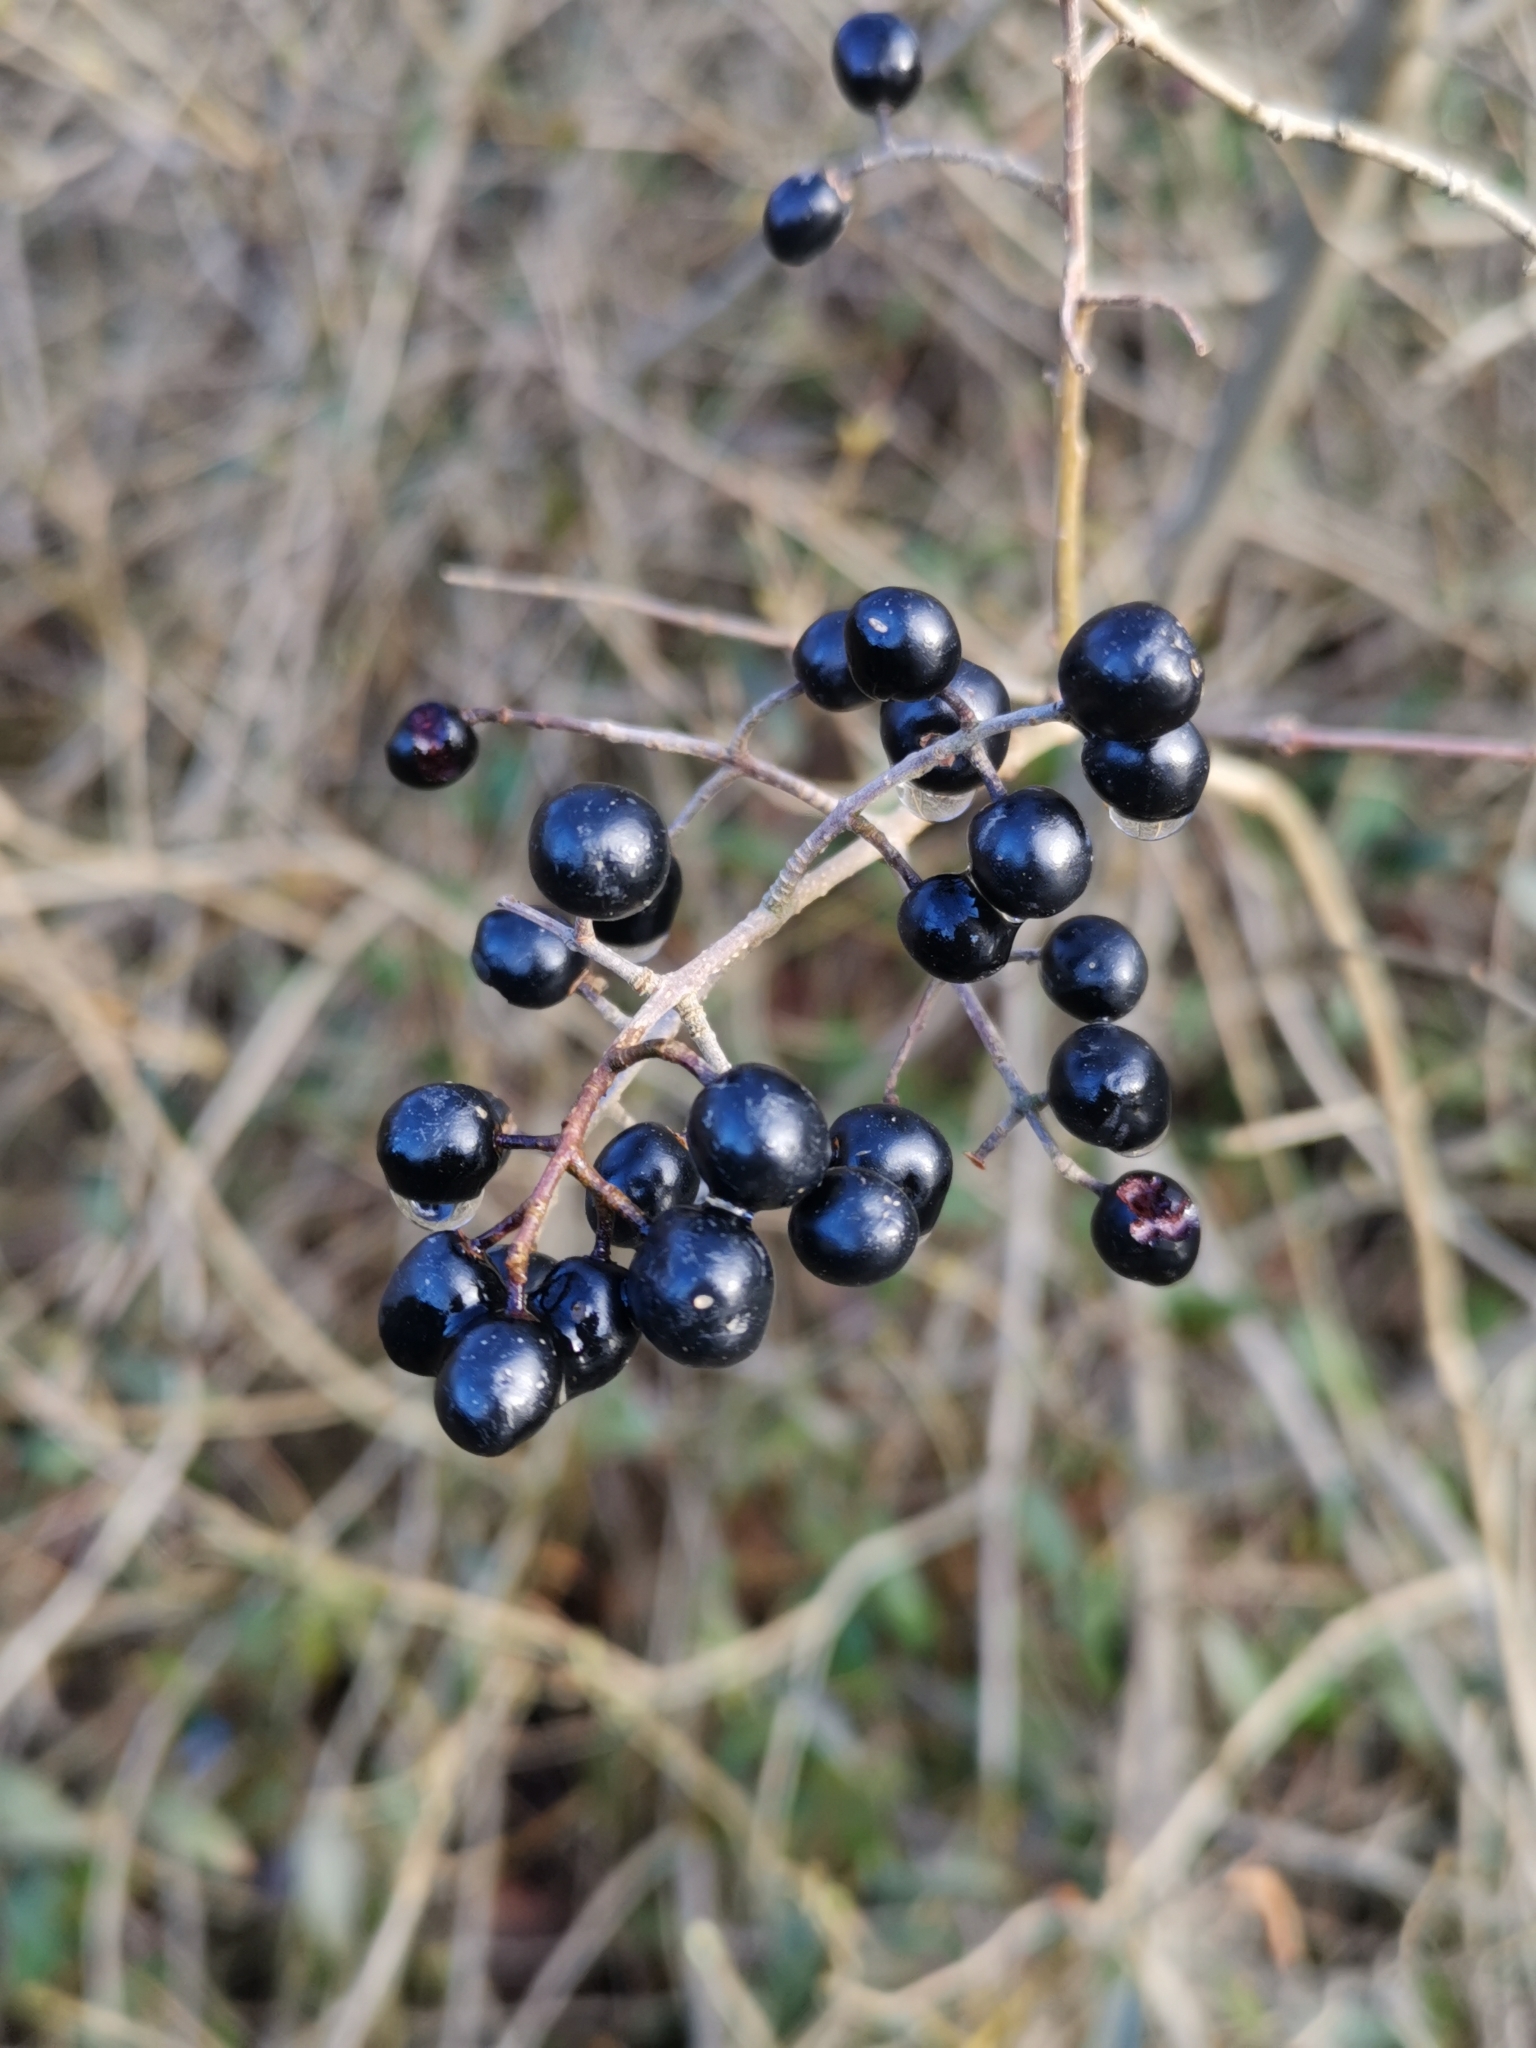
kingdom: Plantae
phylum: Tracheophyta
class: Magnoliopsida
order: Lamiales
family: Oleaceae
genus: Ligustrum
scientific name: Ligustrum vulgare
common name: Wild privet
